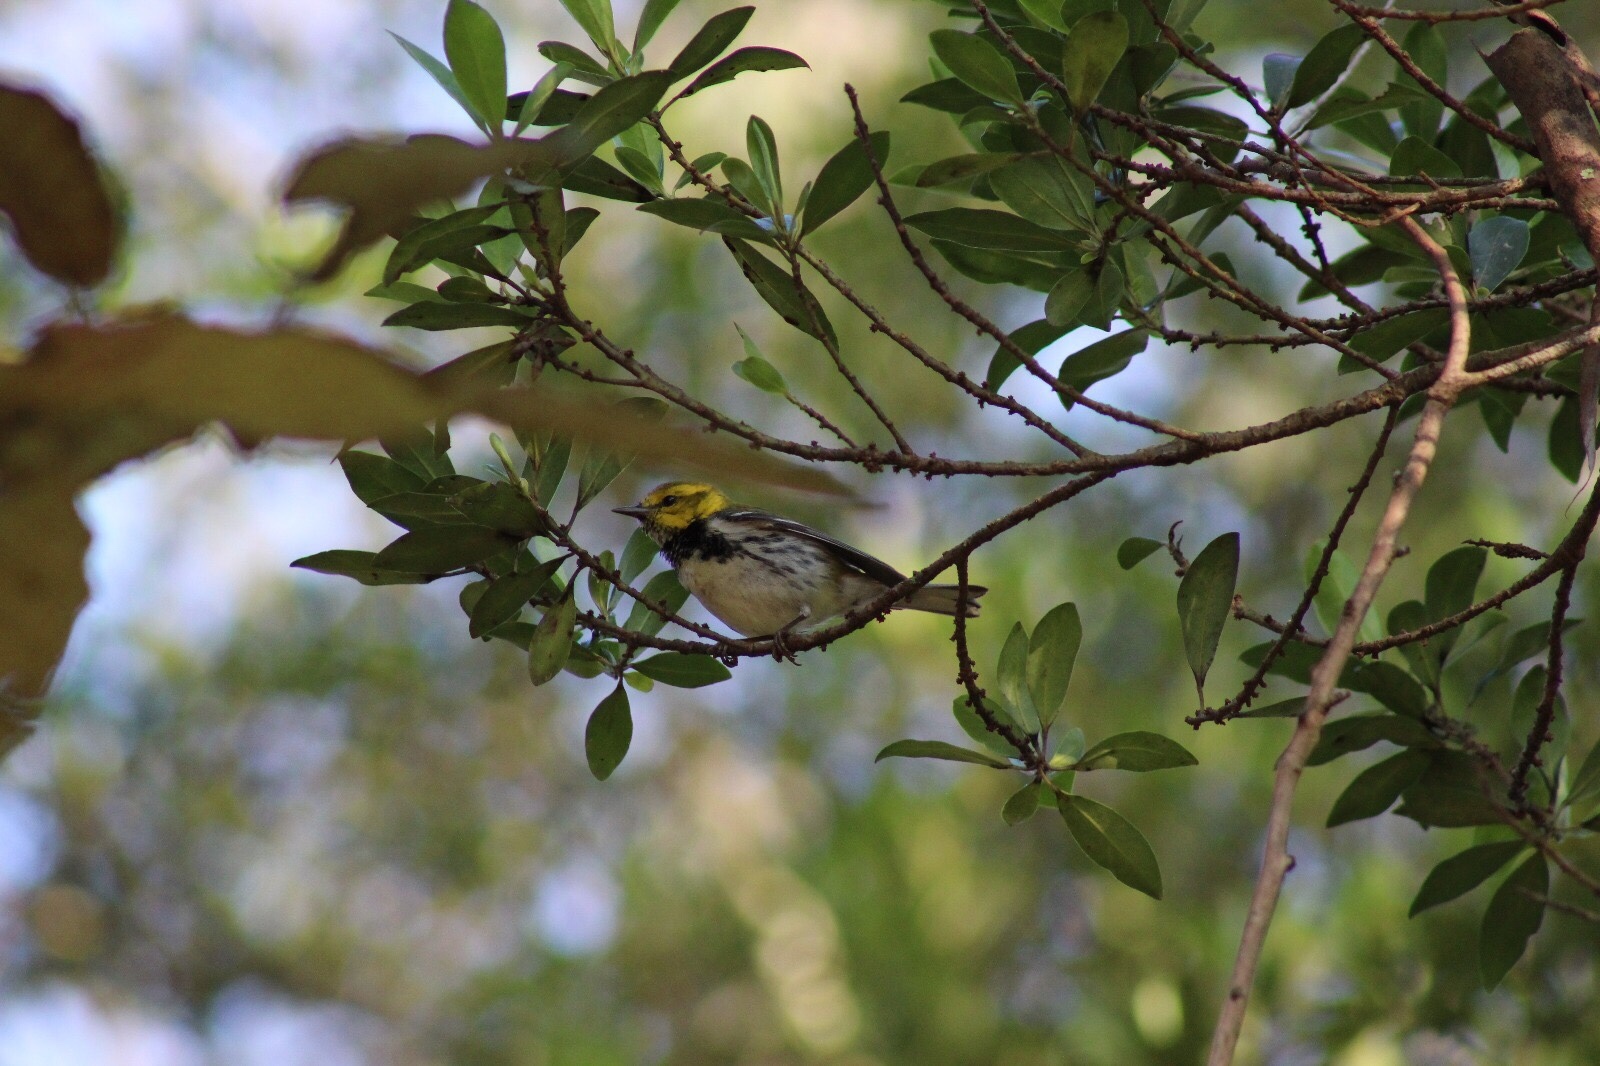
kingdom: Animalia
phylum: Chordata
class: Aves
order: Passeriformes
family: Parulidae
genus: Setophaga
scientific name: Setophaga virens
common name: Black-throated green warbler
